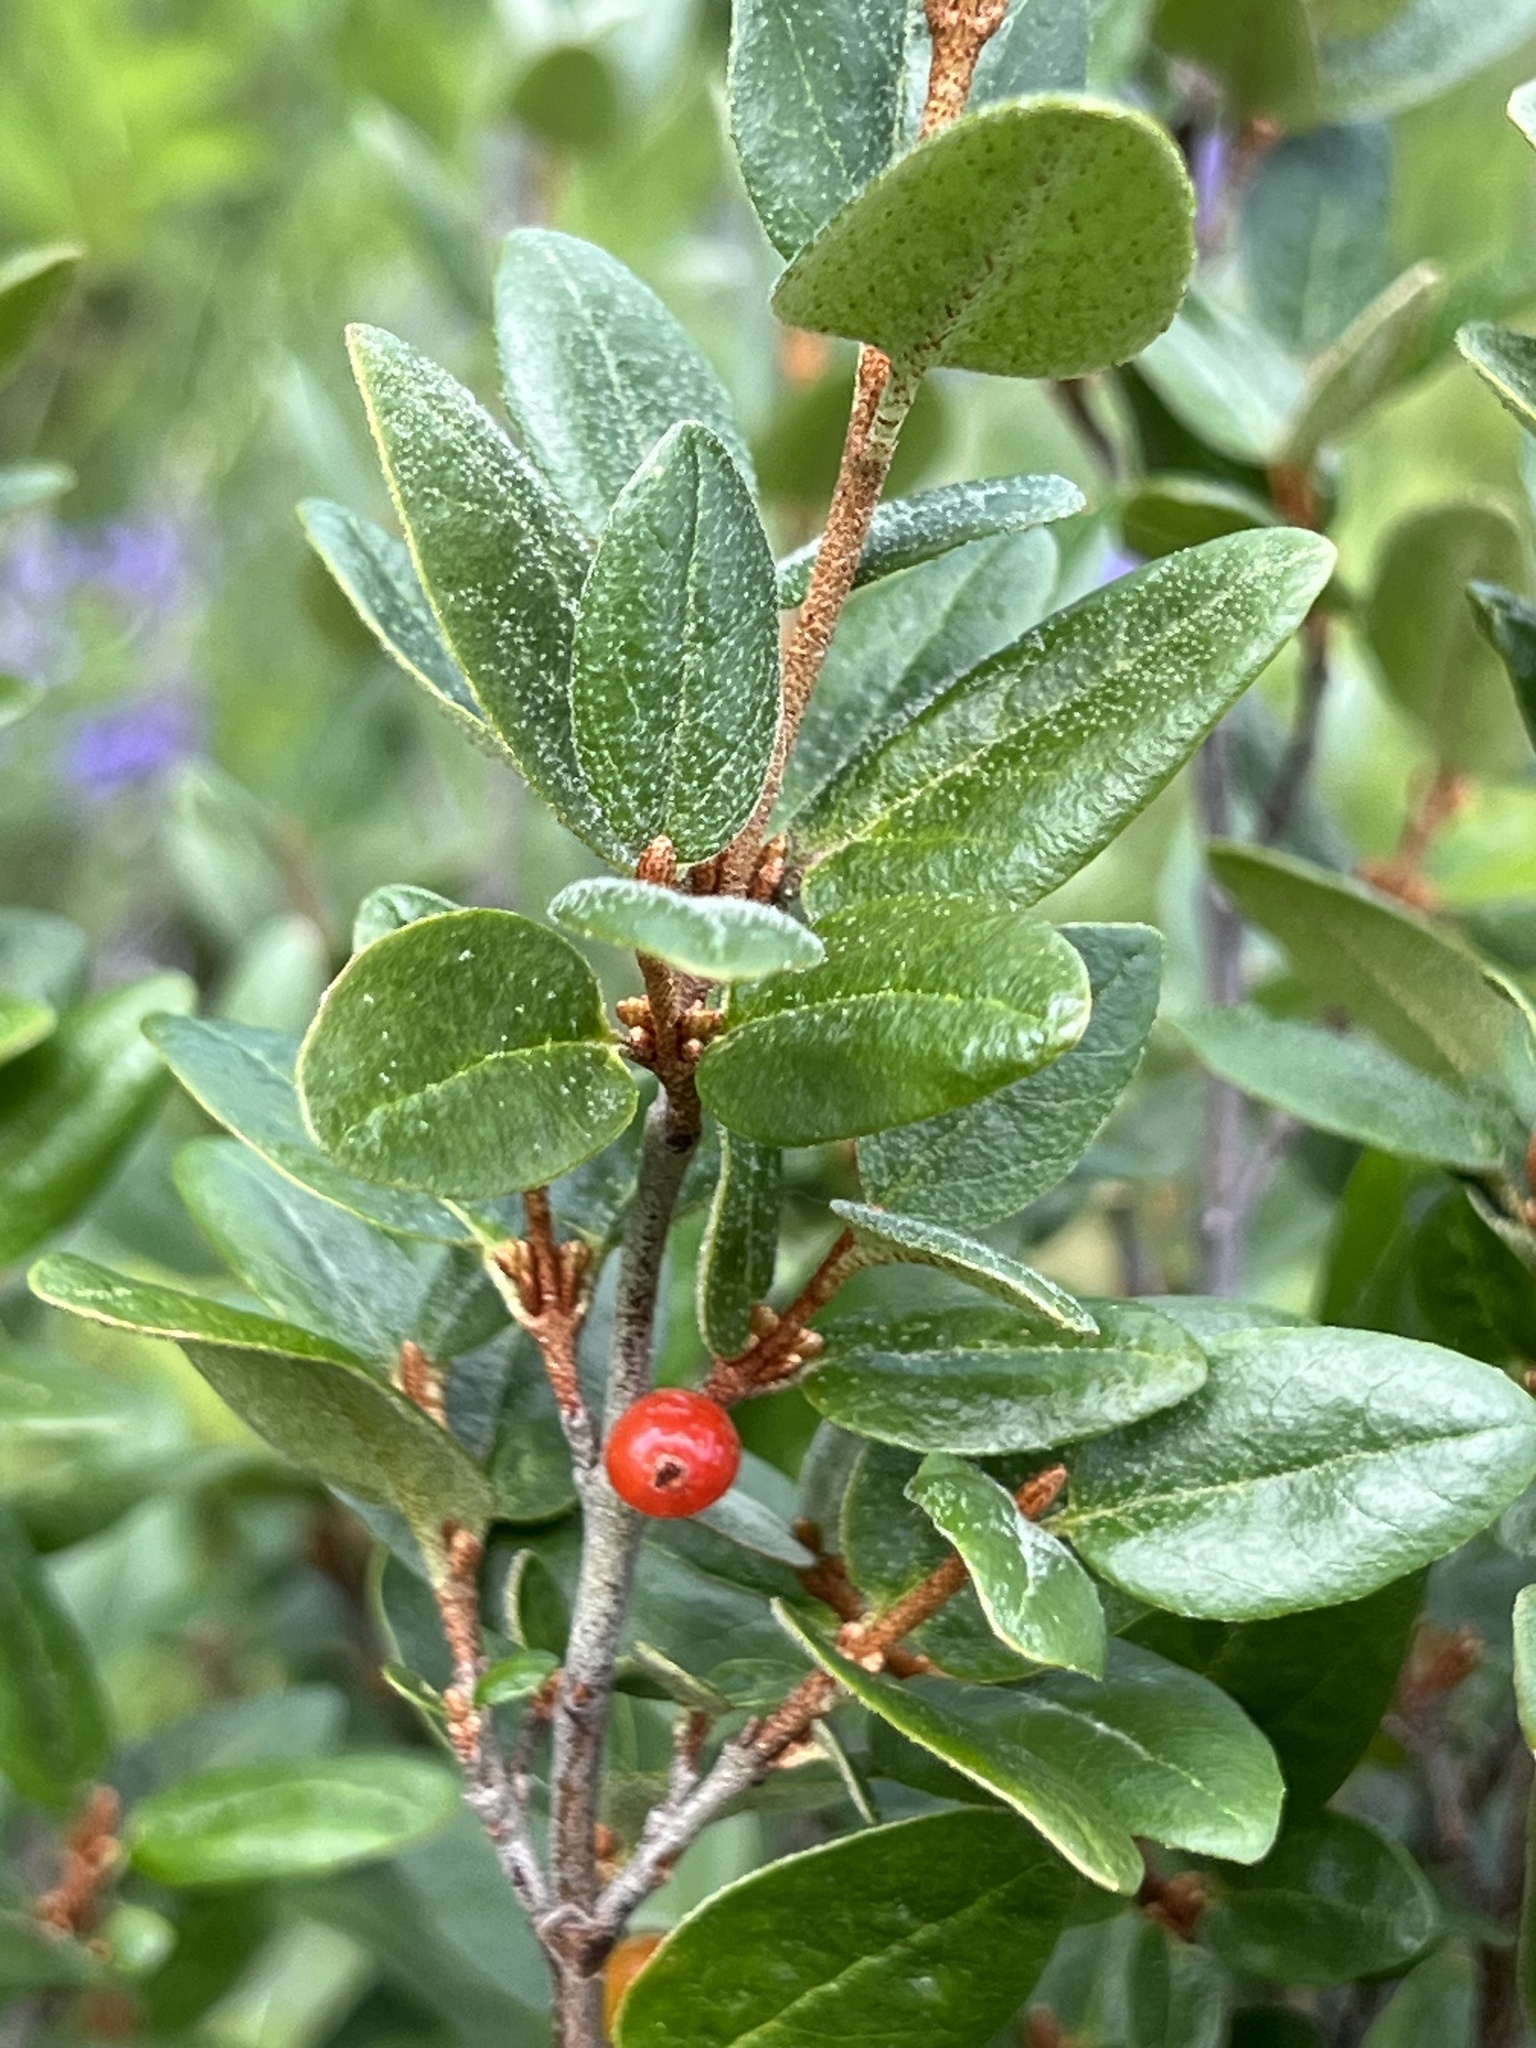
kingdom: Plantae
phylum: Tracheophyta
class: Magnoliopsida
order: Rosales
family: Elaeagnaceae
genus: Shepherdia
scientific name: Shepherdia canadensis
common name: Soapberry
